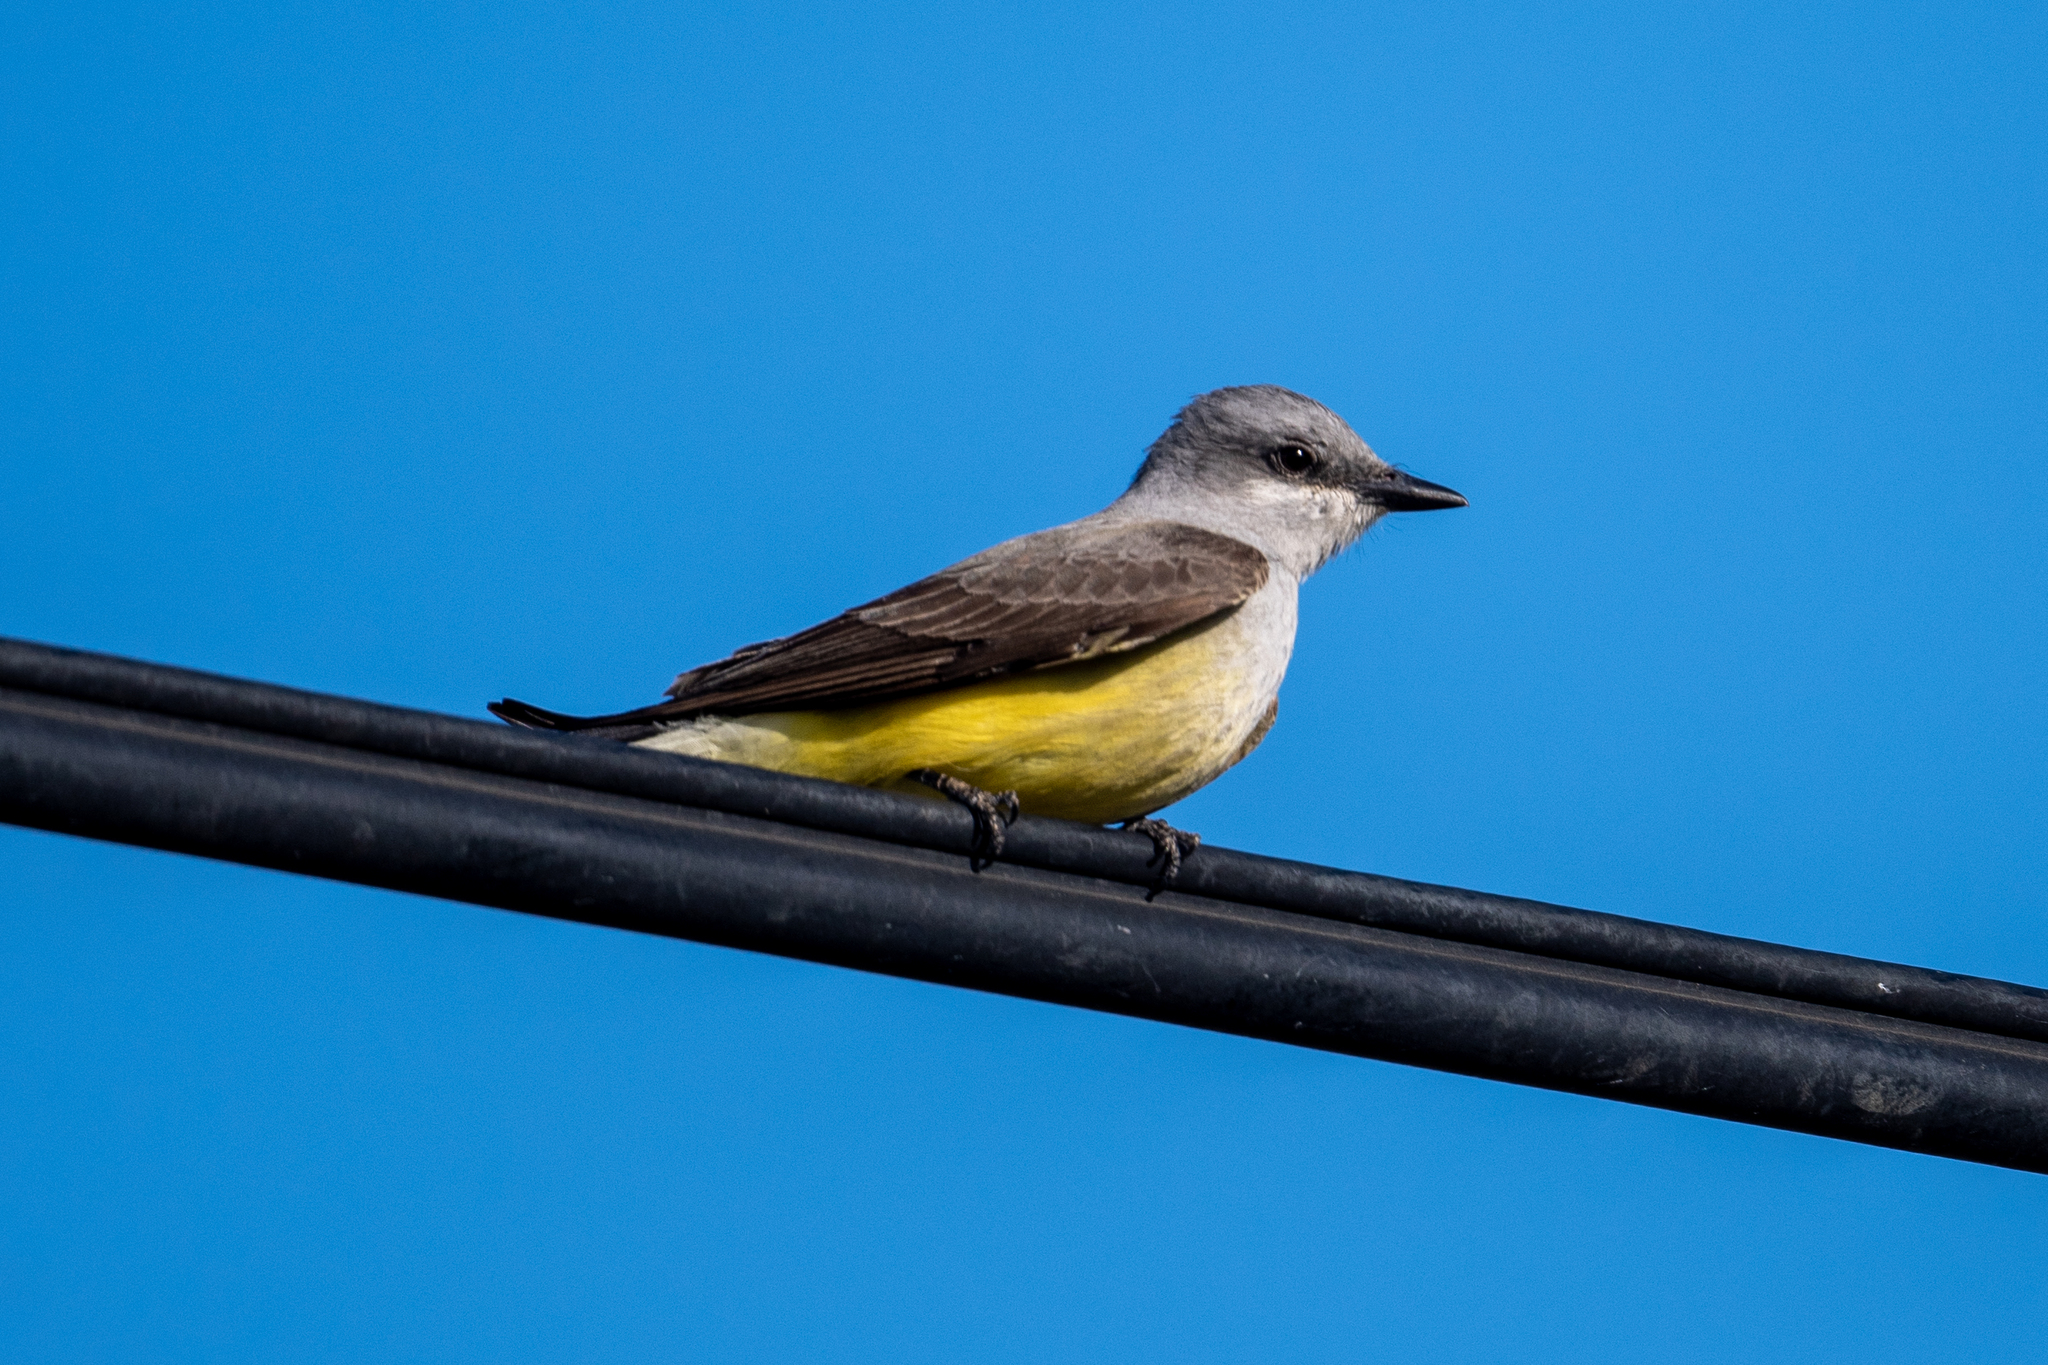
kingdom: Animalia
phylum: Chordata
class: Aves
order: Passeriformes
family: Tyrannidae
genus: Tyrannus
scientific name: Tyrannus verticalis
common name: Western kingbird
